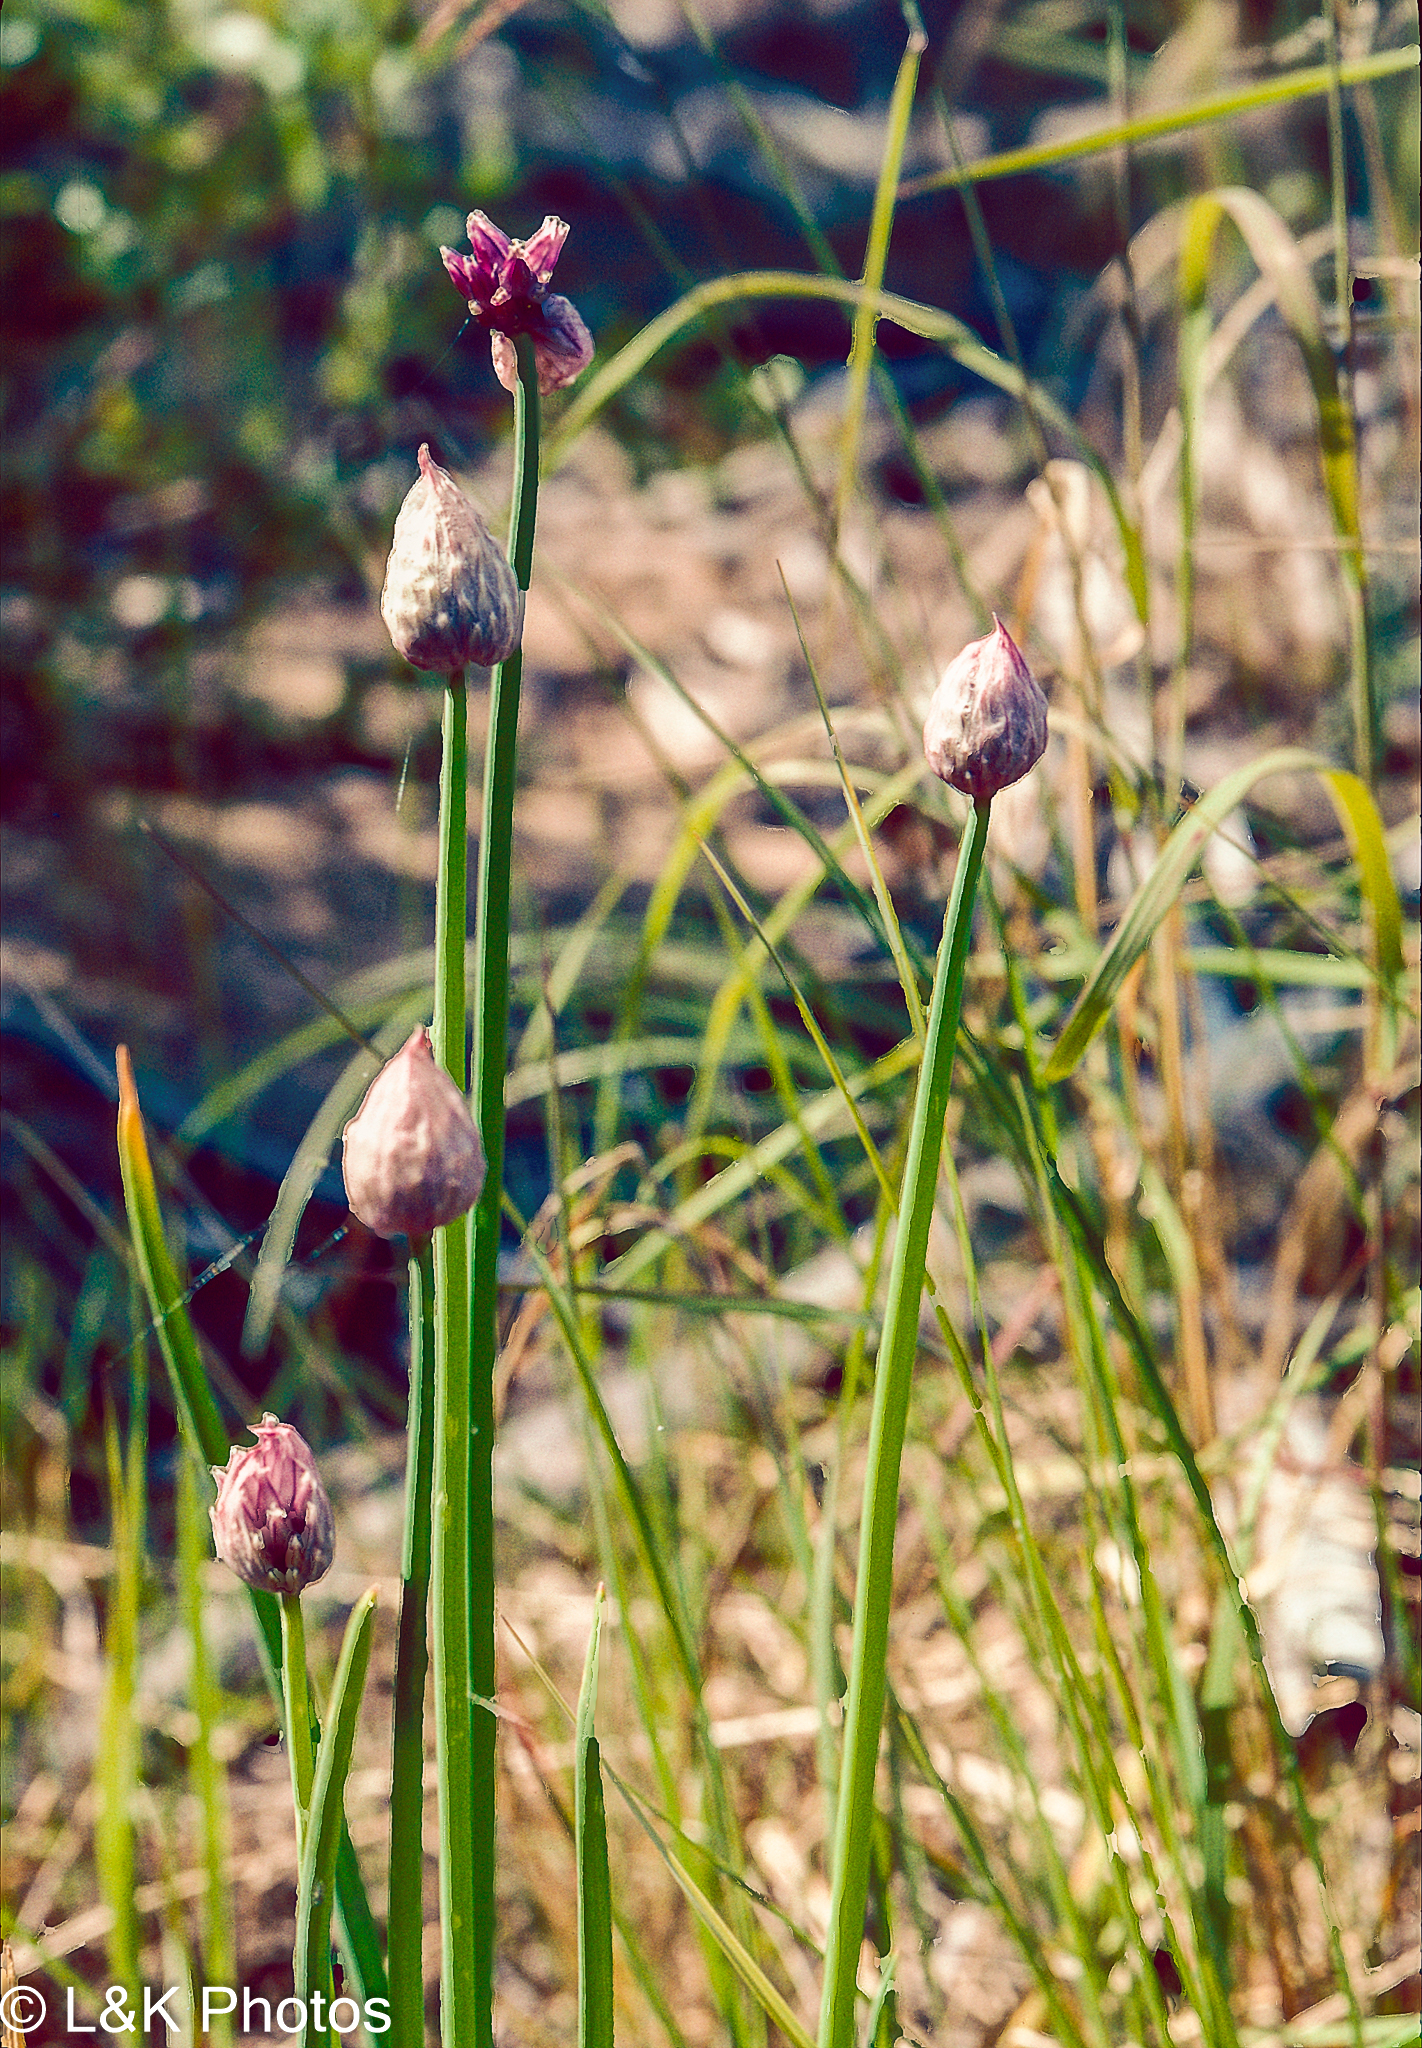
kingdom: Plantae
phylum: Tracheophyta
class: Liliopsida
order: Asparagales
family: Amaryllidaceae
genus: Allium
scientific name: Allium schoenoprasum
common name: Chives
